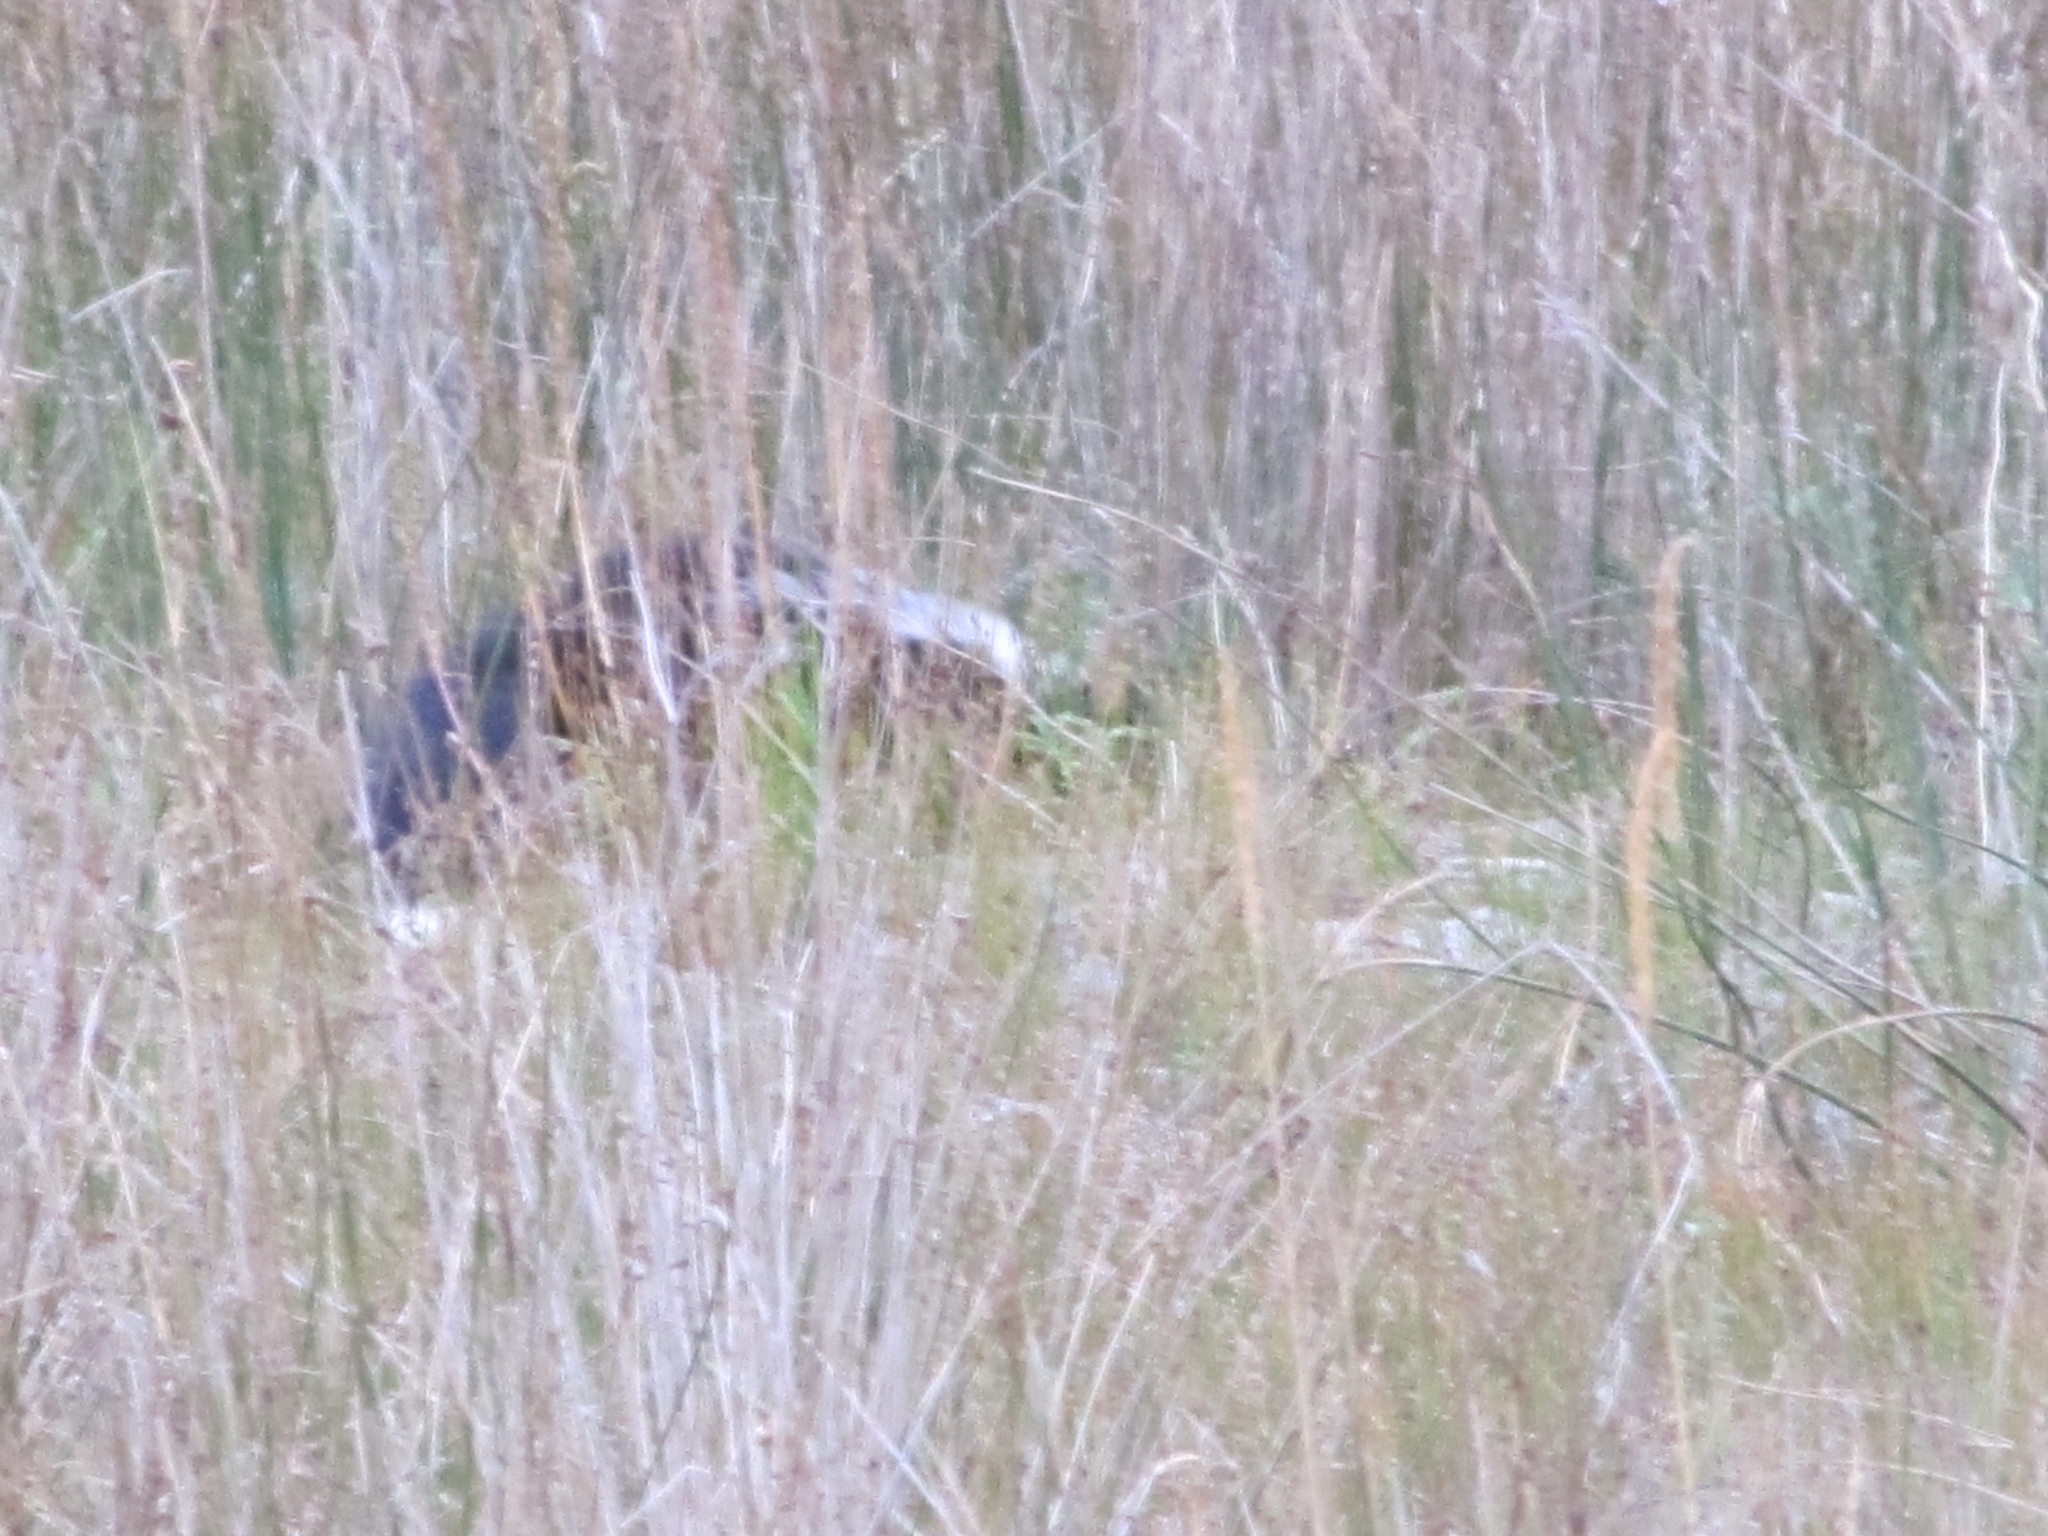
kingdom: Animalia
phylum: Chordata
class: Mammalia
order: Carnivora
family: Mephitidae
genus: Mephitis
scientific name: Mephitis mephitis
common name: Striped skunk
